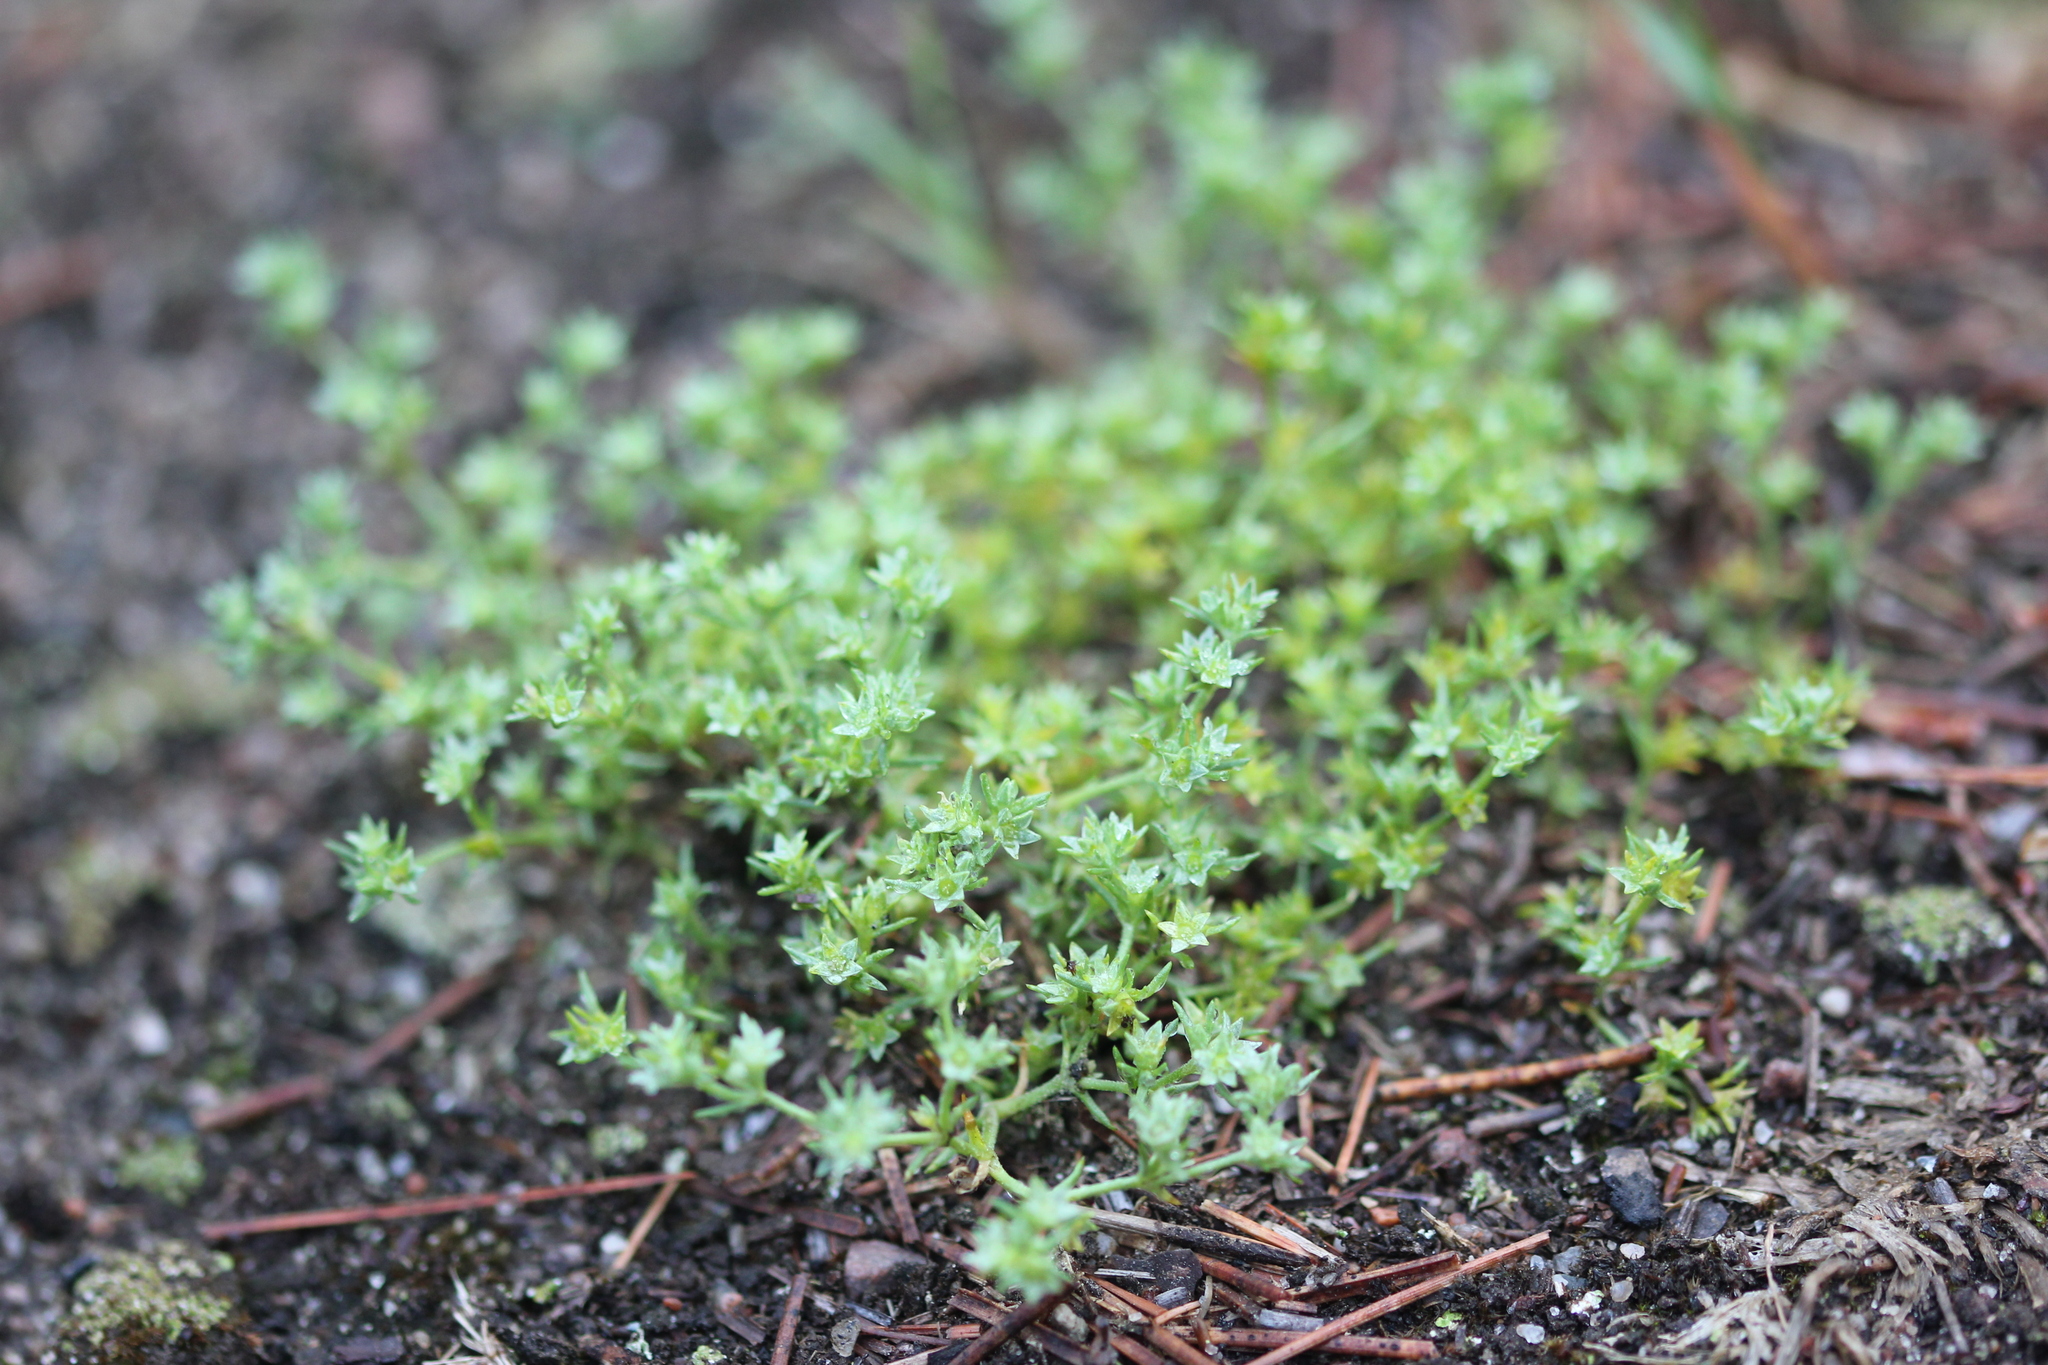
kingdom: Plantae
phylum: Tracheophyta
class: Magnoliopsida
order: Caryophyllales
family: Caryophyllaceae
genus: Scleranthus
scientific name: Scleranthus annuus
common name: Annual knawel
